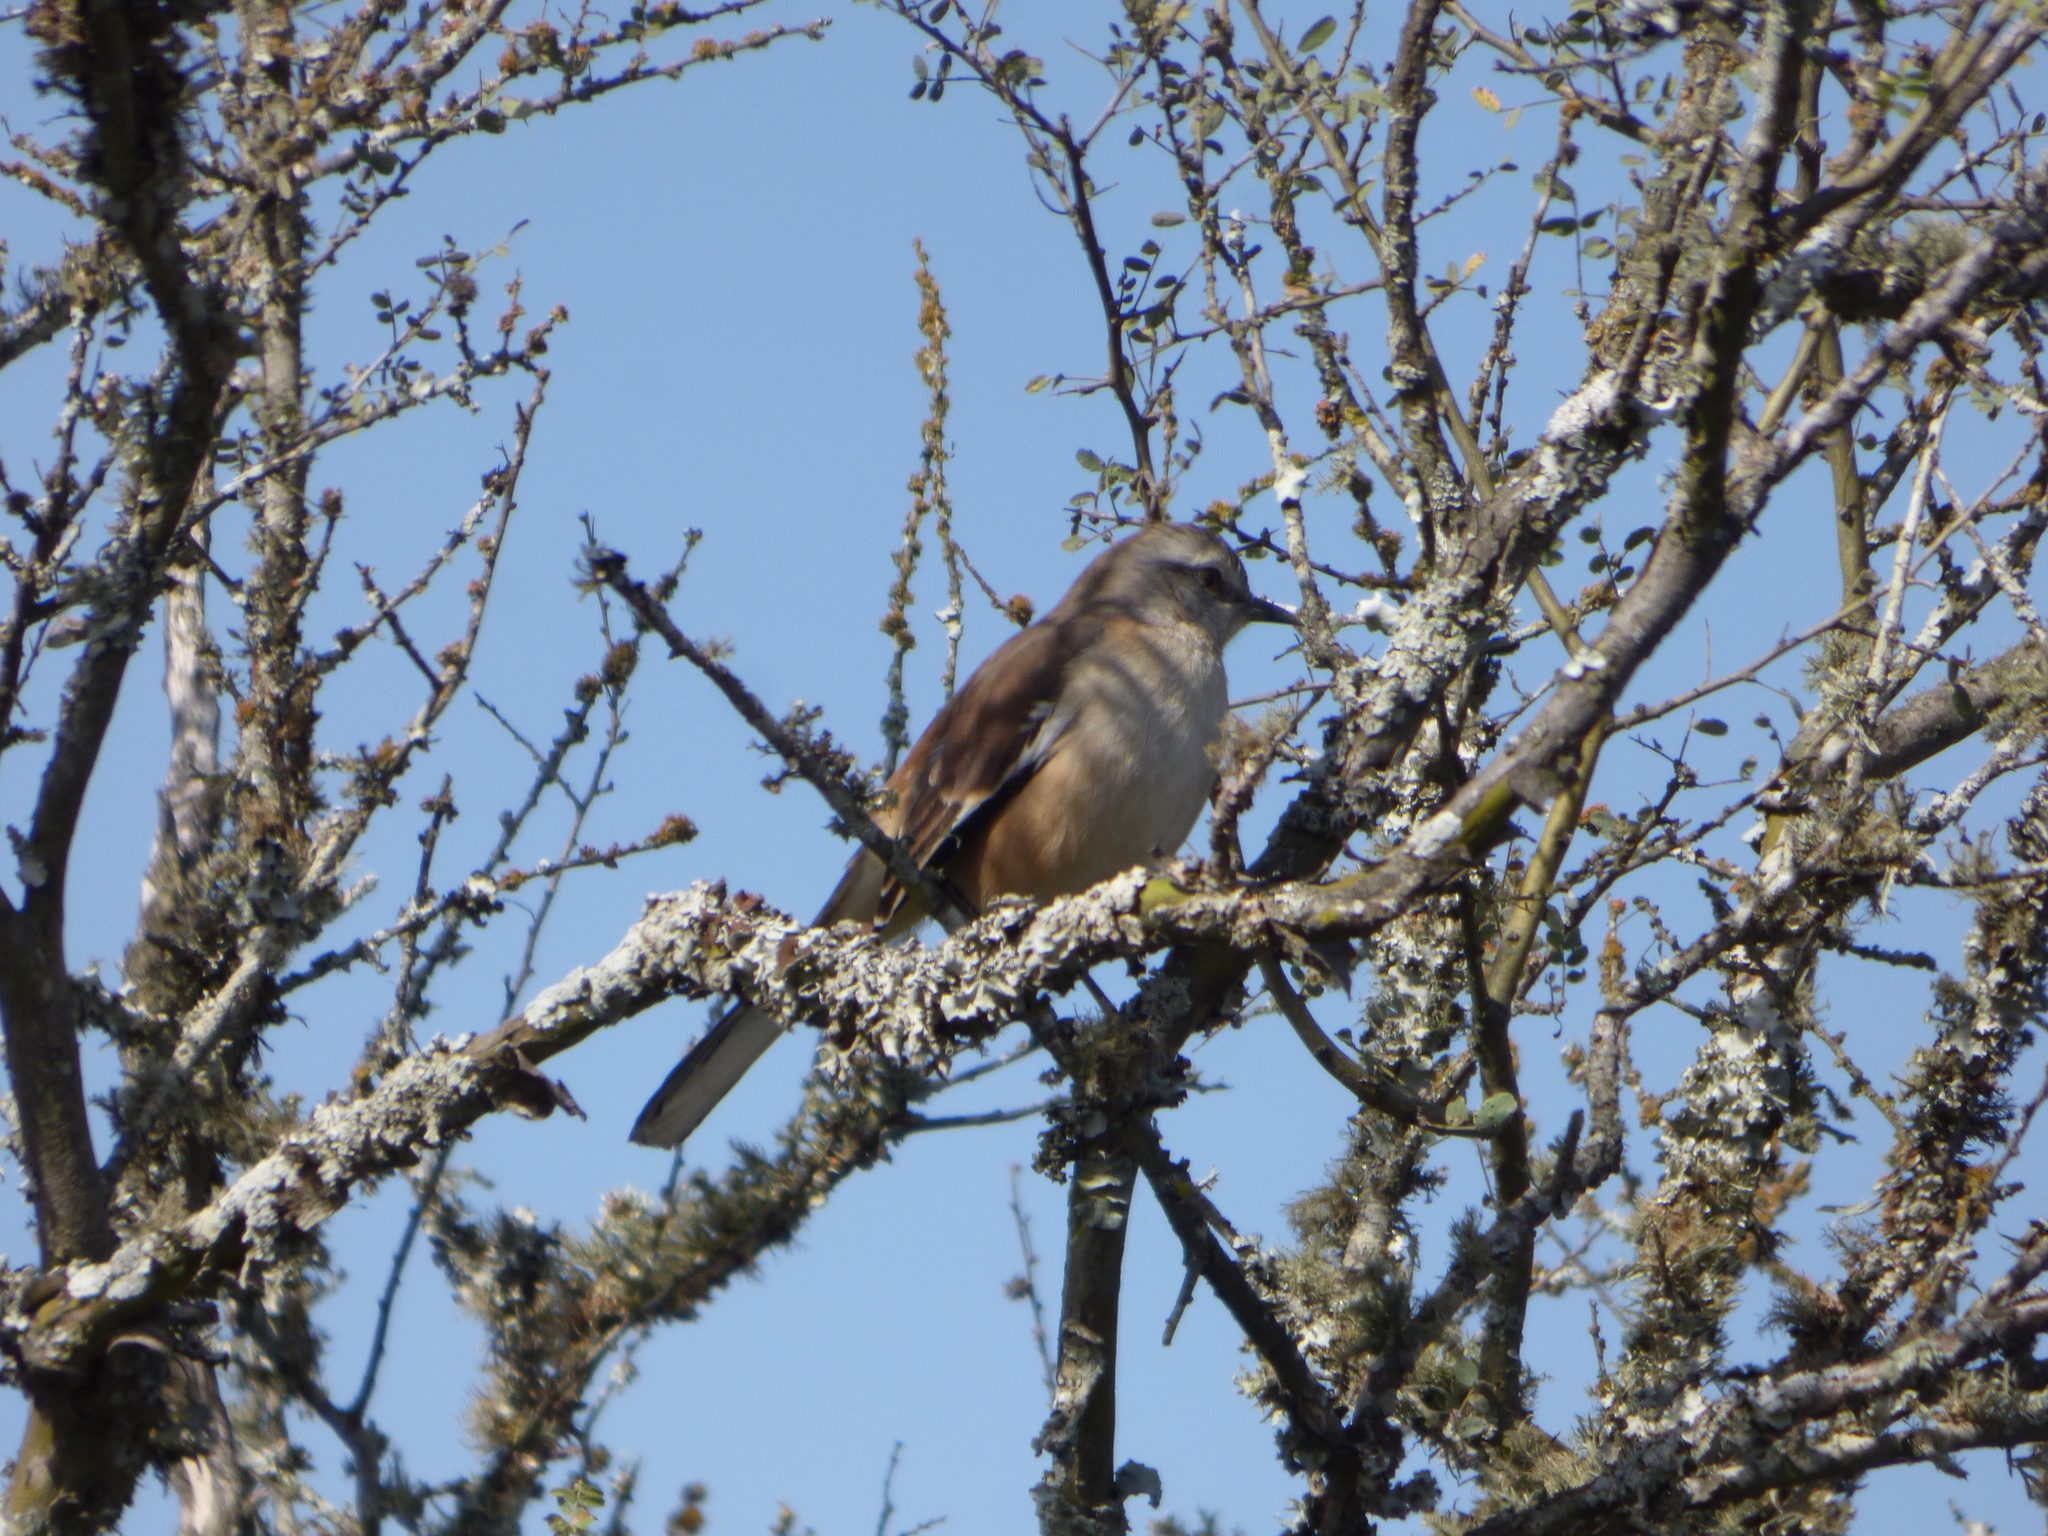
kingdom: Animalia
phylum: Chordata
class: Aves
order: Passeriformes
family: Mimidae
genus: Mimus
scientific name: Mimus triurus
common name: White-banded mockingbird
